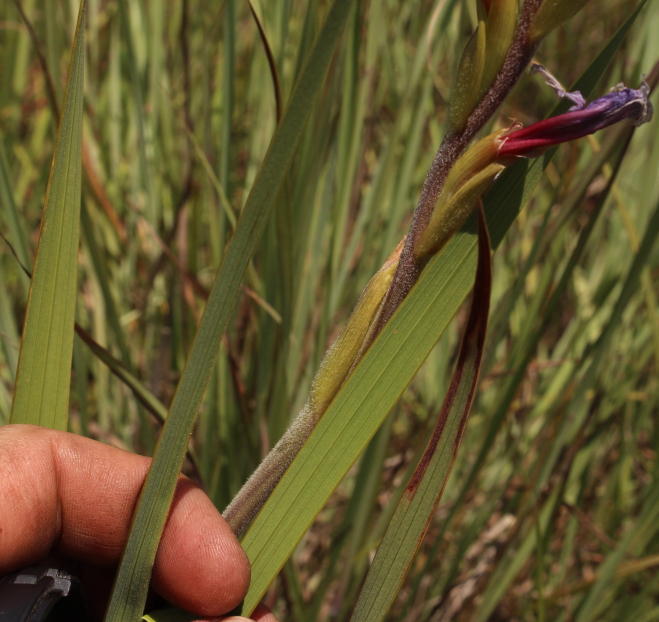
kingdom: Plantae
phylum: Tracheophyta
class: Liliopsida
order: Asparagales
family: Iridaceae
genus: Gladiolus
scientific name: Gladiolus sericeovillosus
